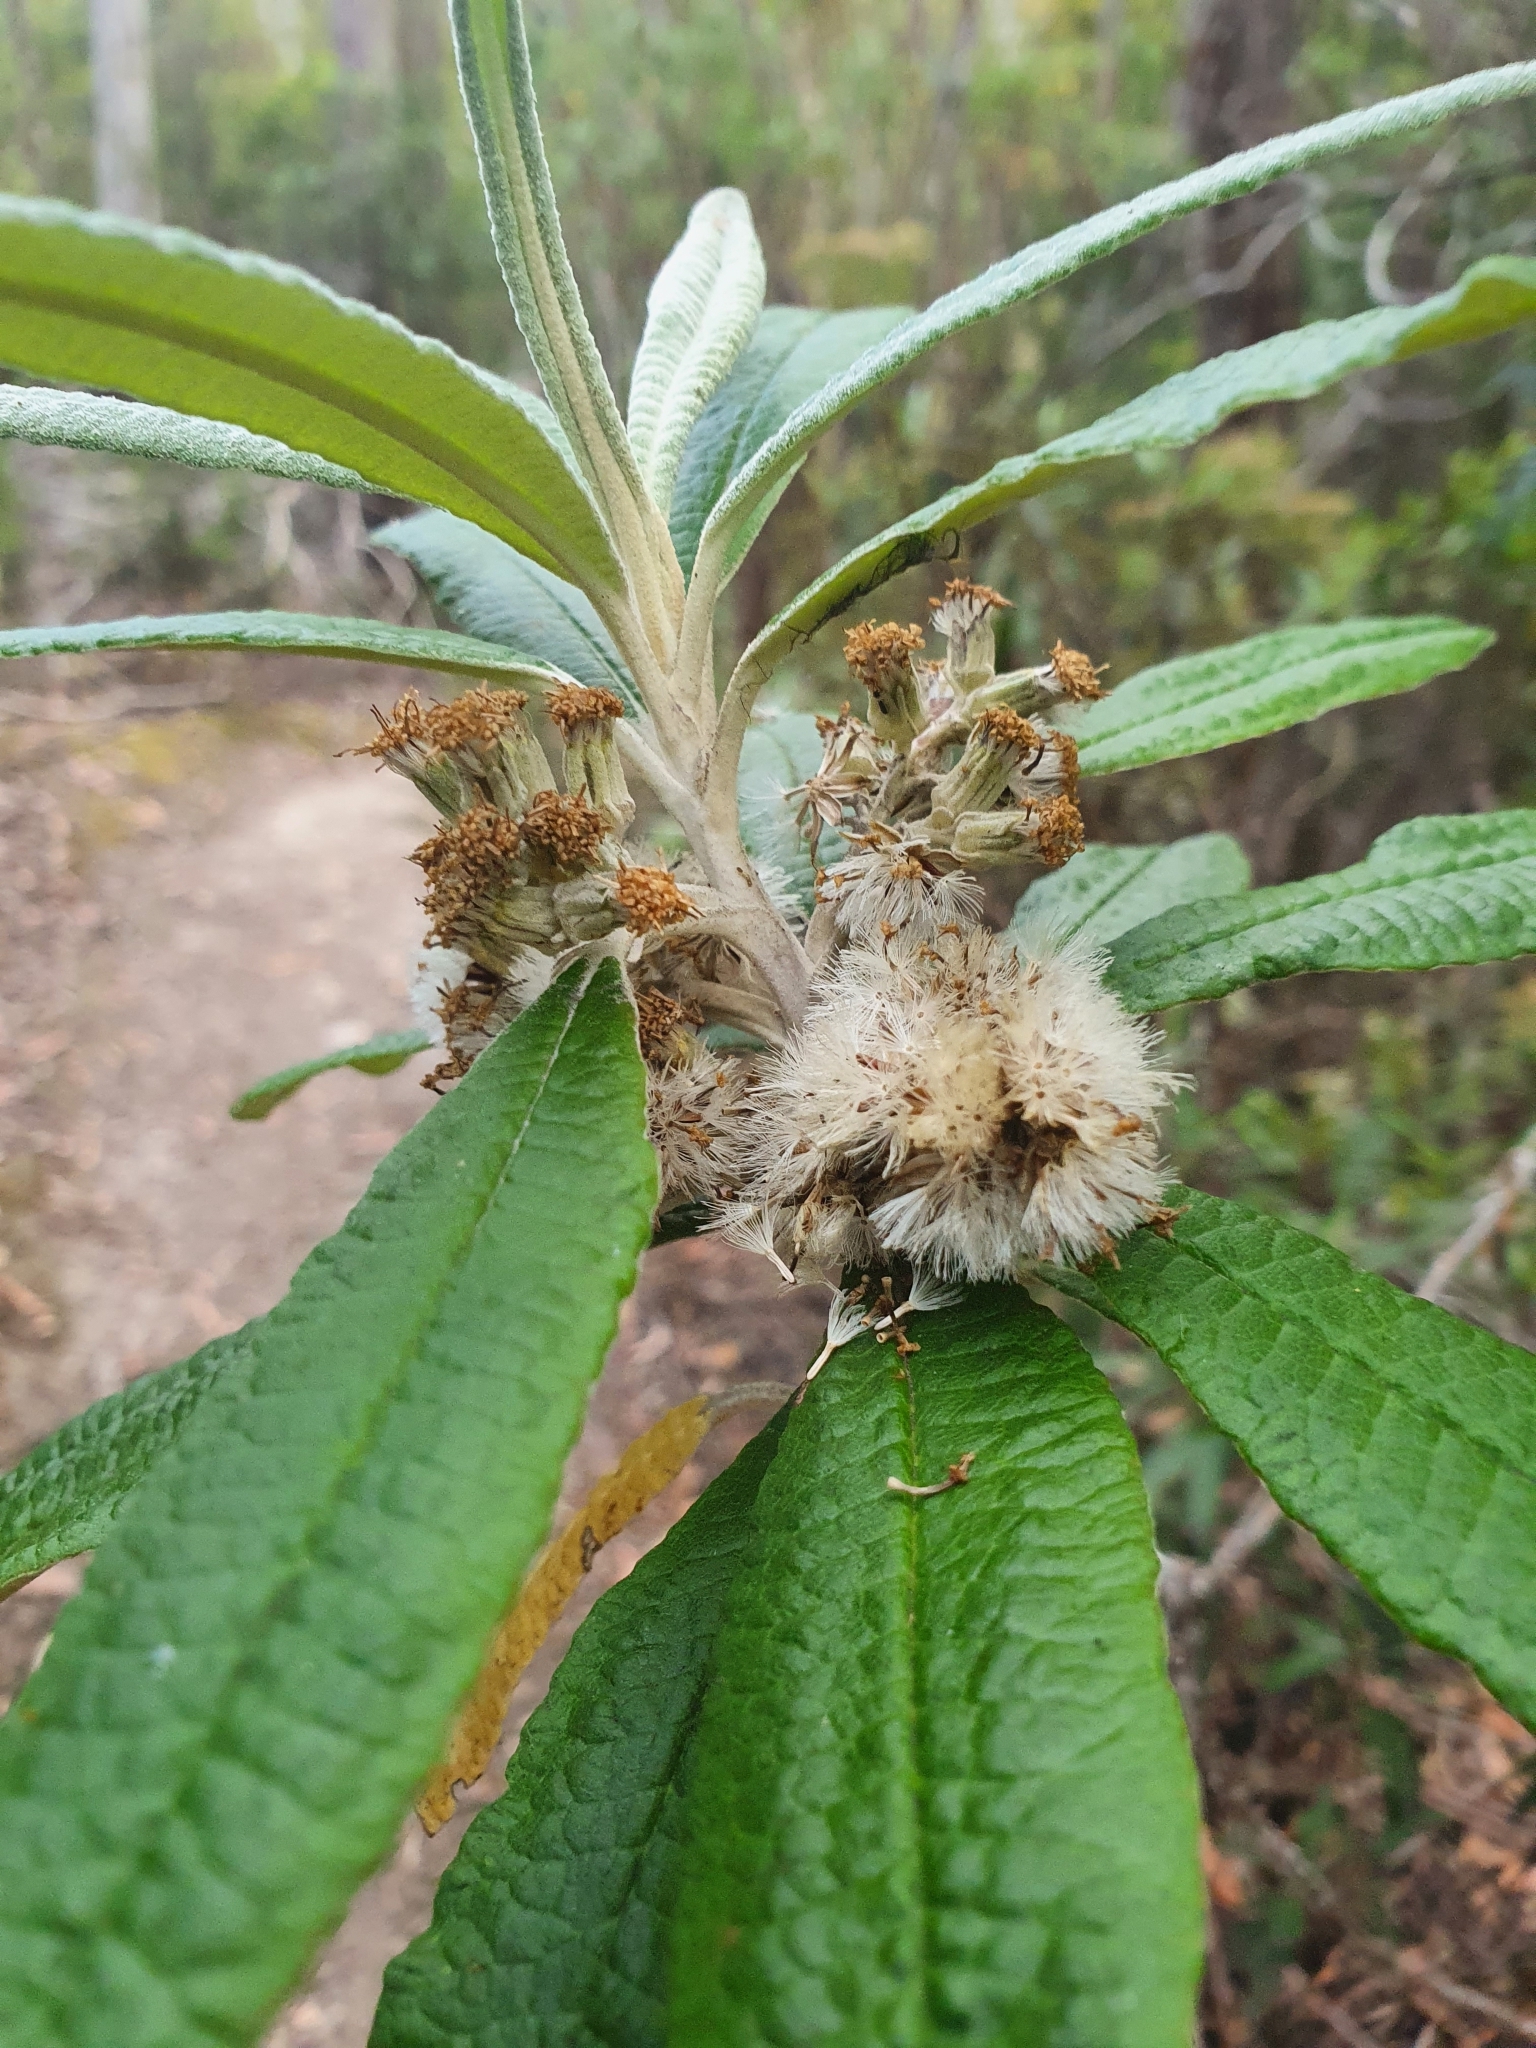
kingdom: Plantae
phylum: Tracheophyta
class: Magnoliopsida
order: Asterales
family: Asteraceae
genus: Bedfordia
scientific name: Bedfordia salicina
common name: Blanketleaf
